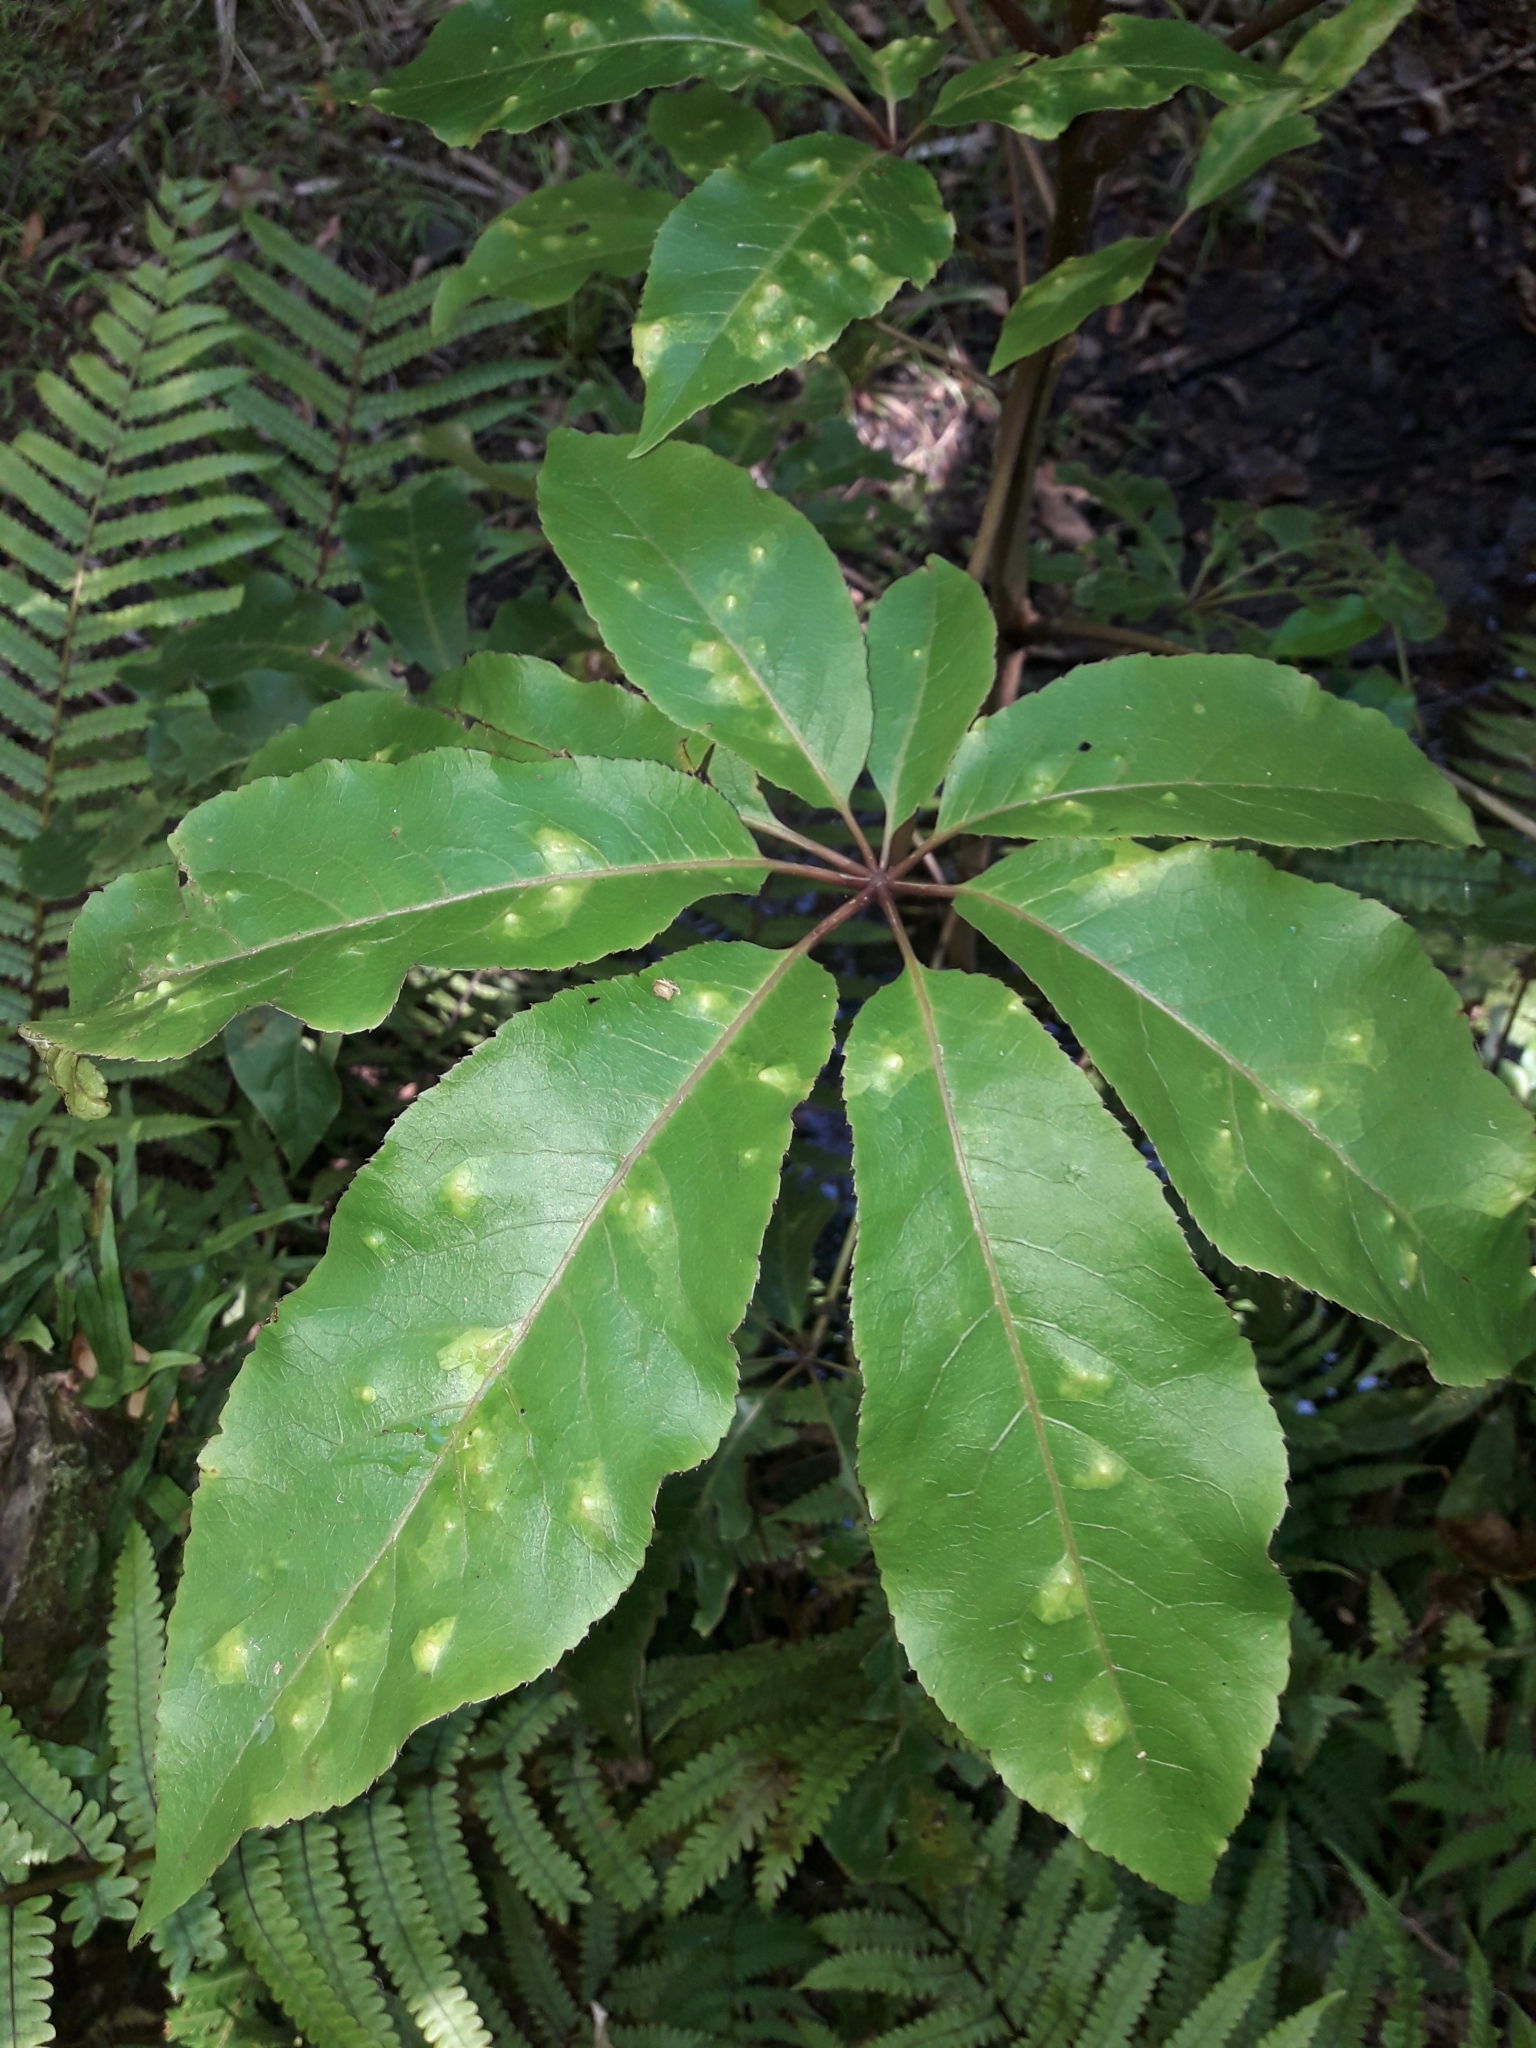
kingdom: Plantae
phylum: Tracheophyta
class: Magnoliopsida
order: Apiales
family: Araliaceae
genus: Schefflera
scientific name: Schefflera digitata
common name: Pate
